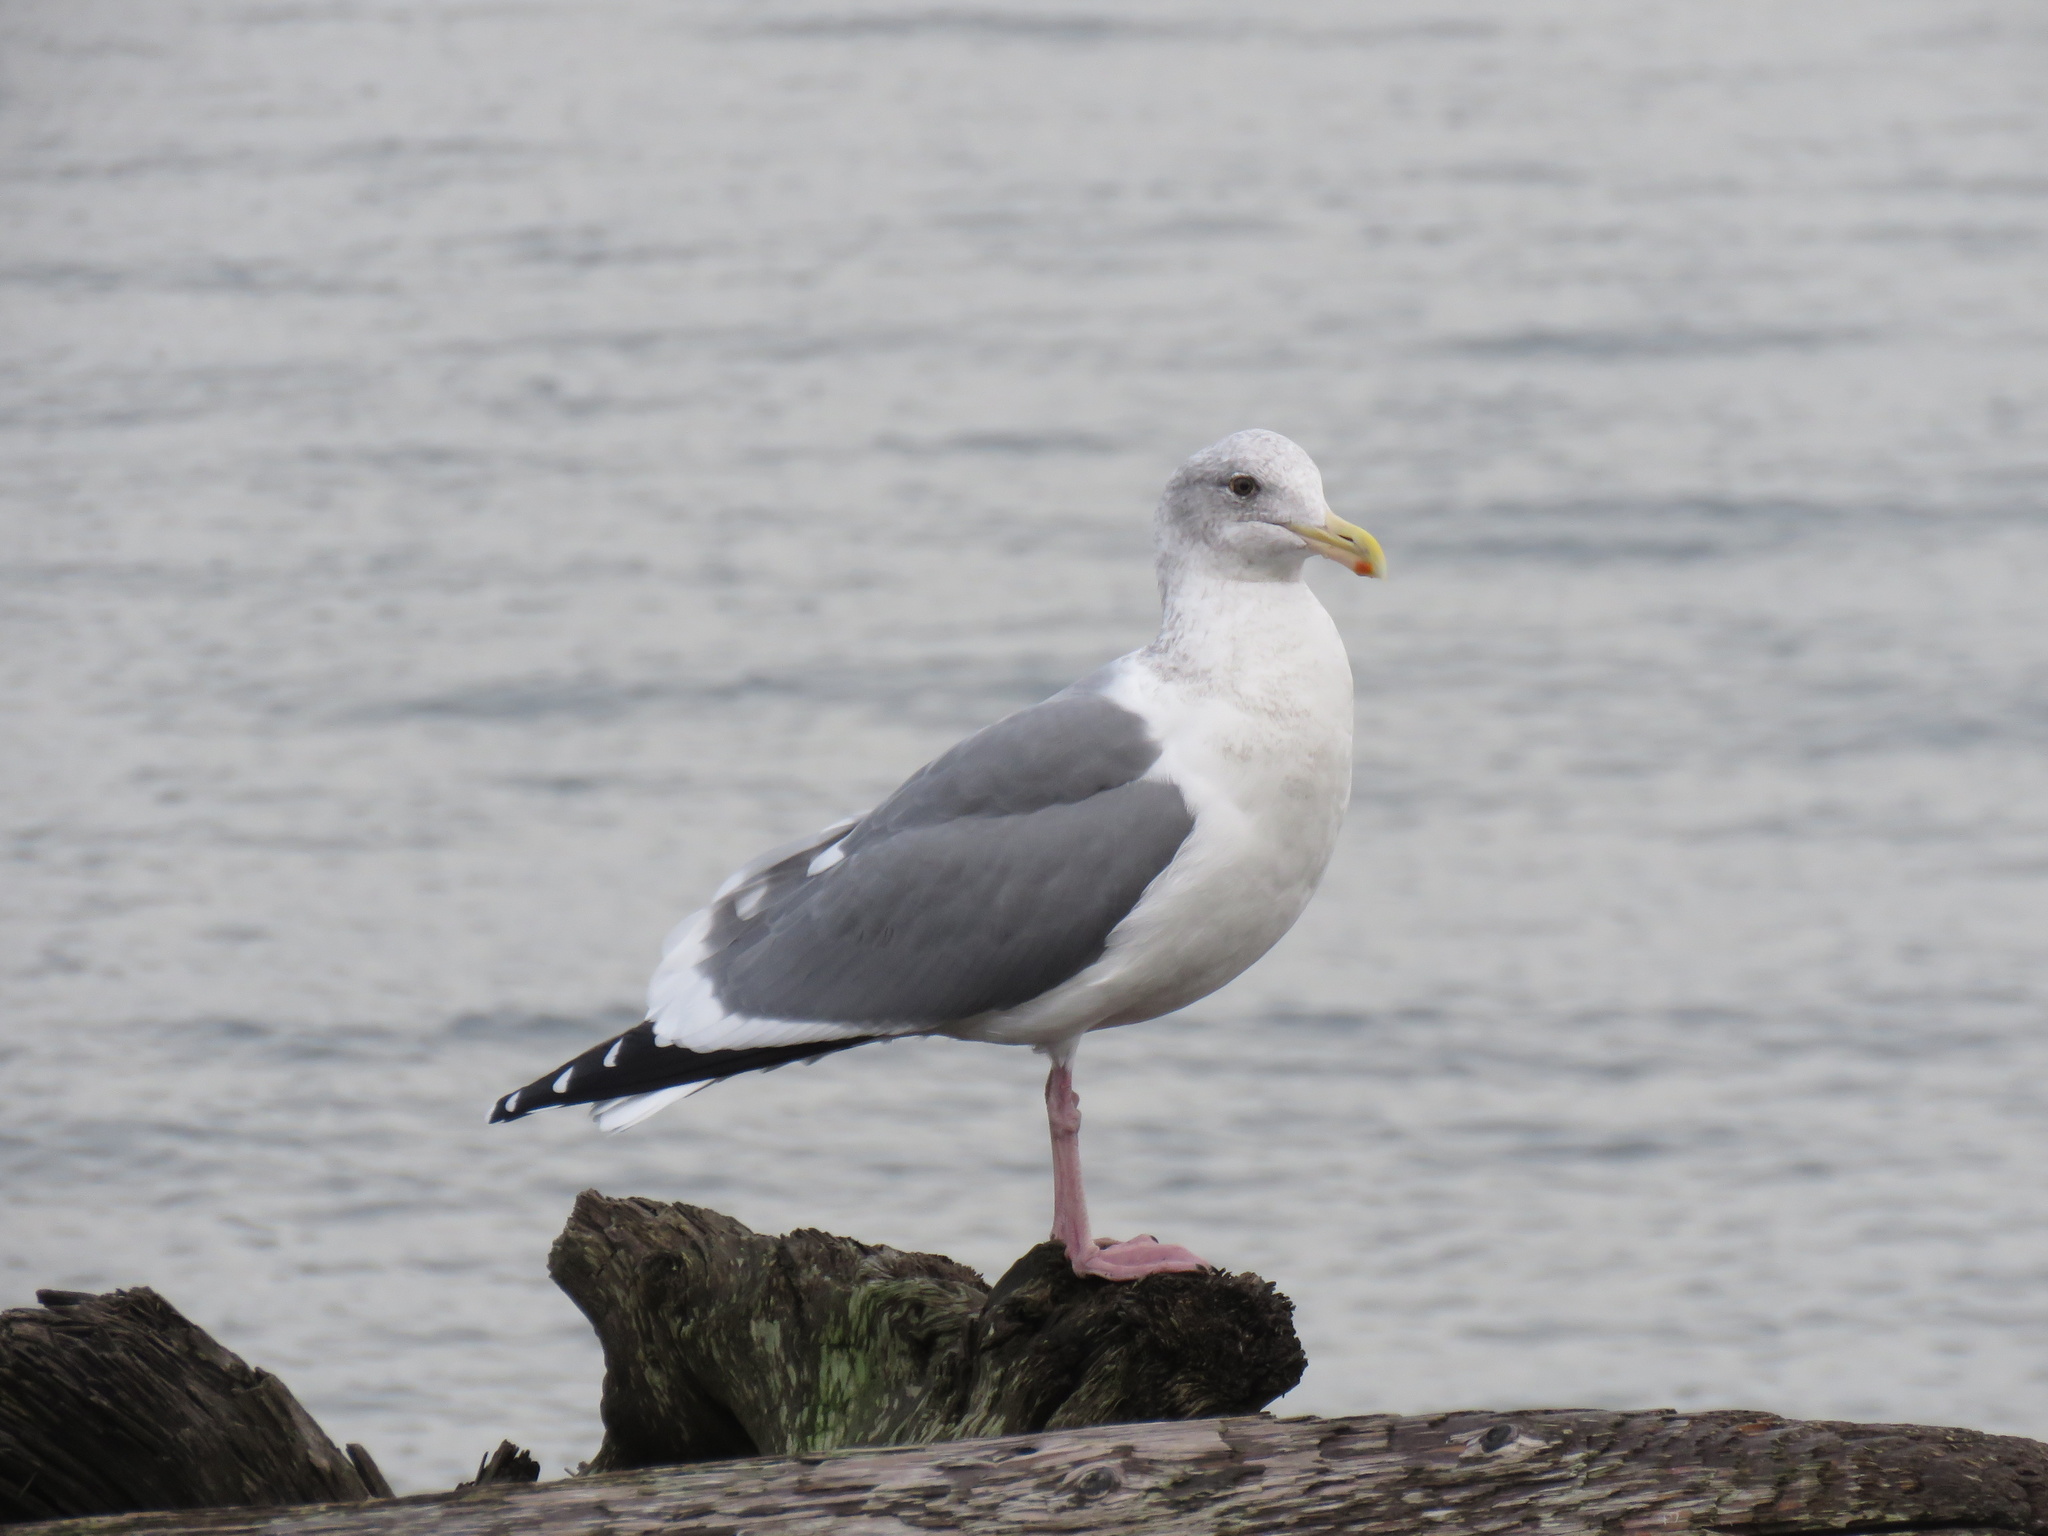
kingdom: Animalia
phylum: Chordata
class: Aves
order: Charadriiformes
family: Laridae
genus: Larus
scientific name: Larus
